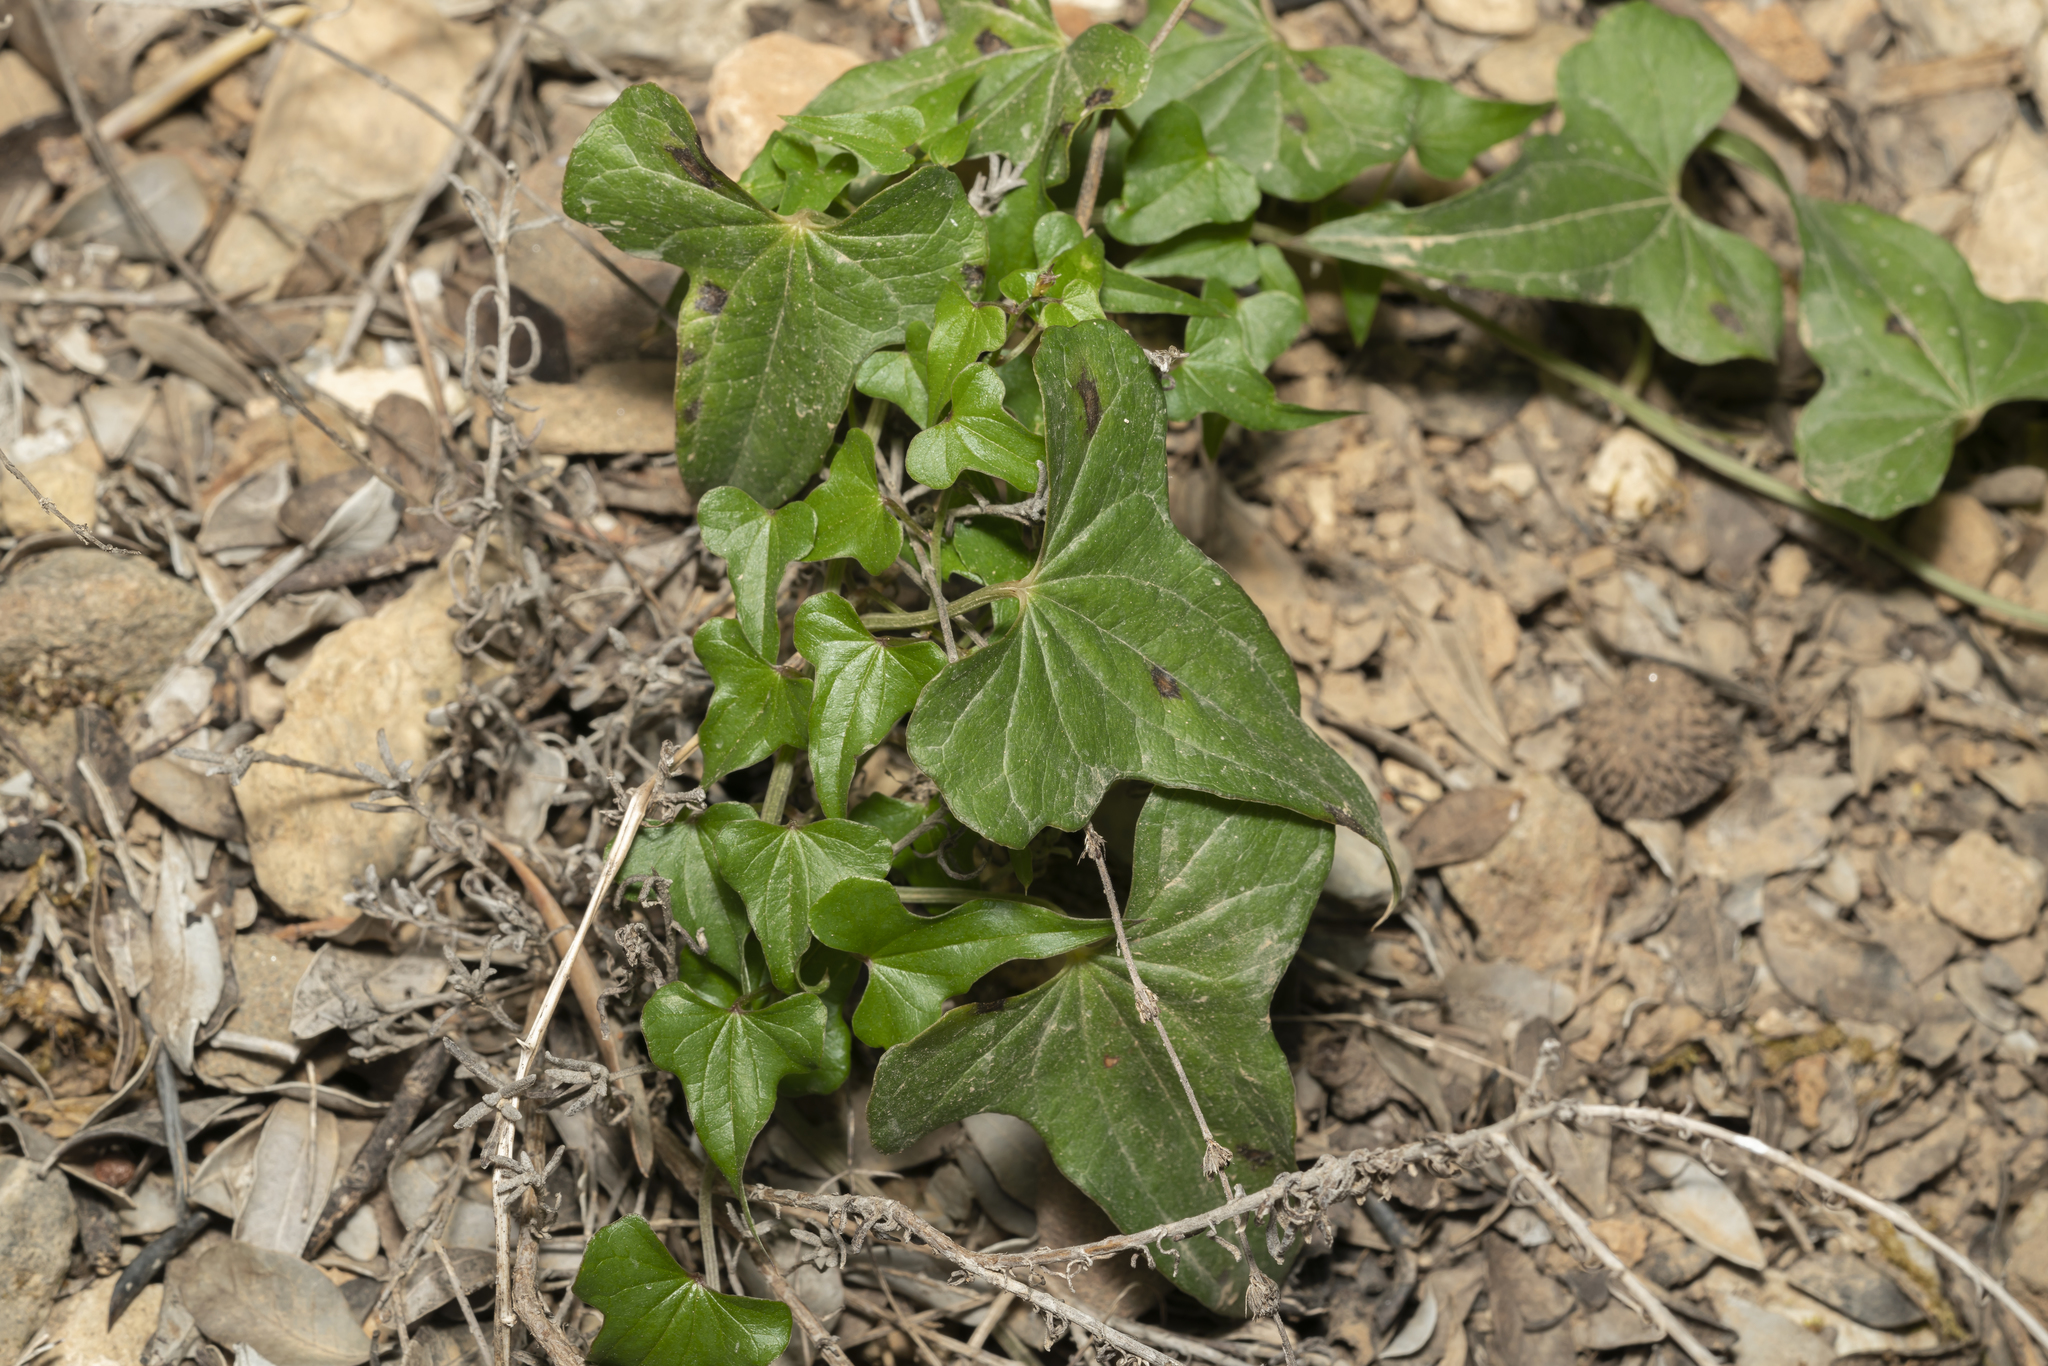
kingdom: Plantae
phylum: Tracheophyta
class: Liliopsida
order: Dioscoreales
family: Dioscoreaceae
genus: Dioscorea
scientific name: Dioscorea communis
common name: Black-bindweed
